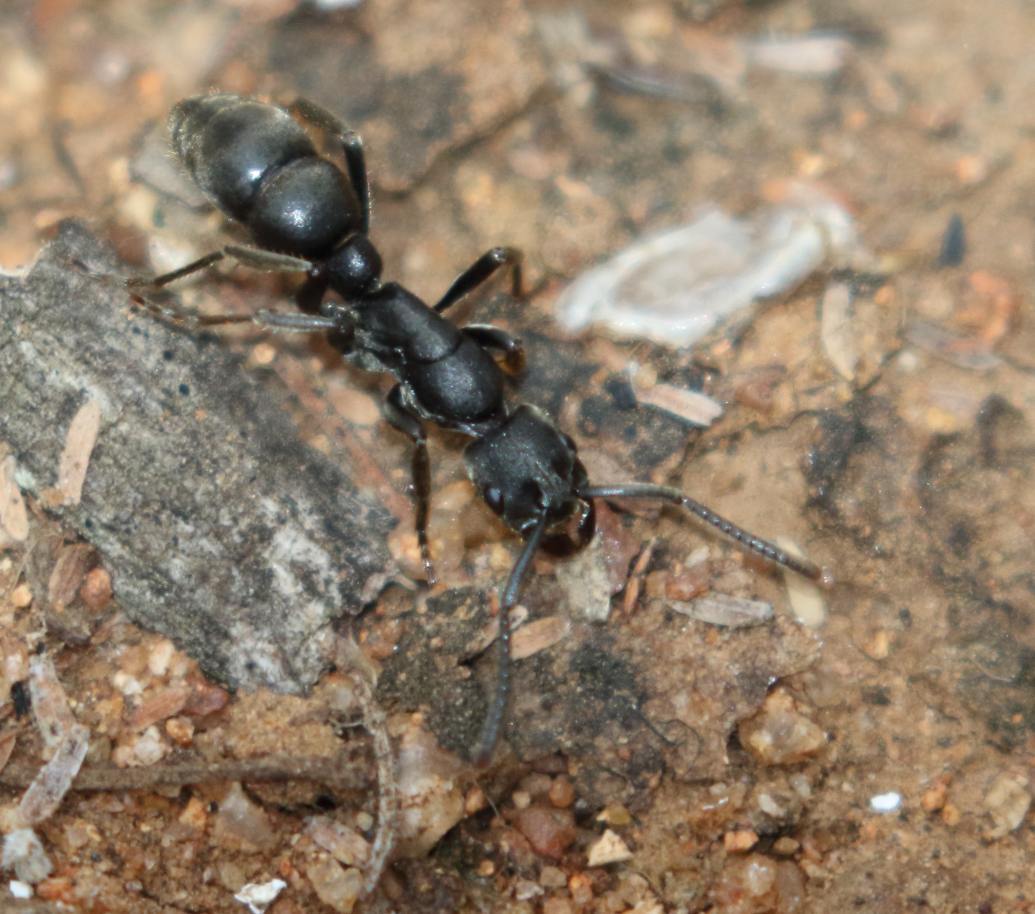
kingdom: Animalia
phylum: Arthropoda
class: Insecta
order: Hymenoptera
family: Formicidae
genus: Bothroponera
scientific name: Bothroponera soror
